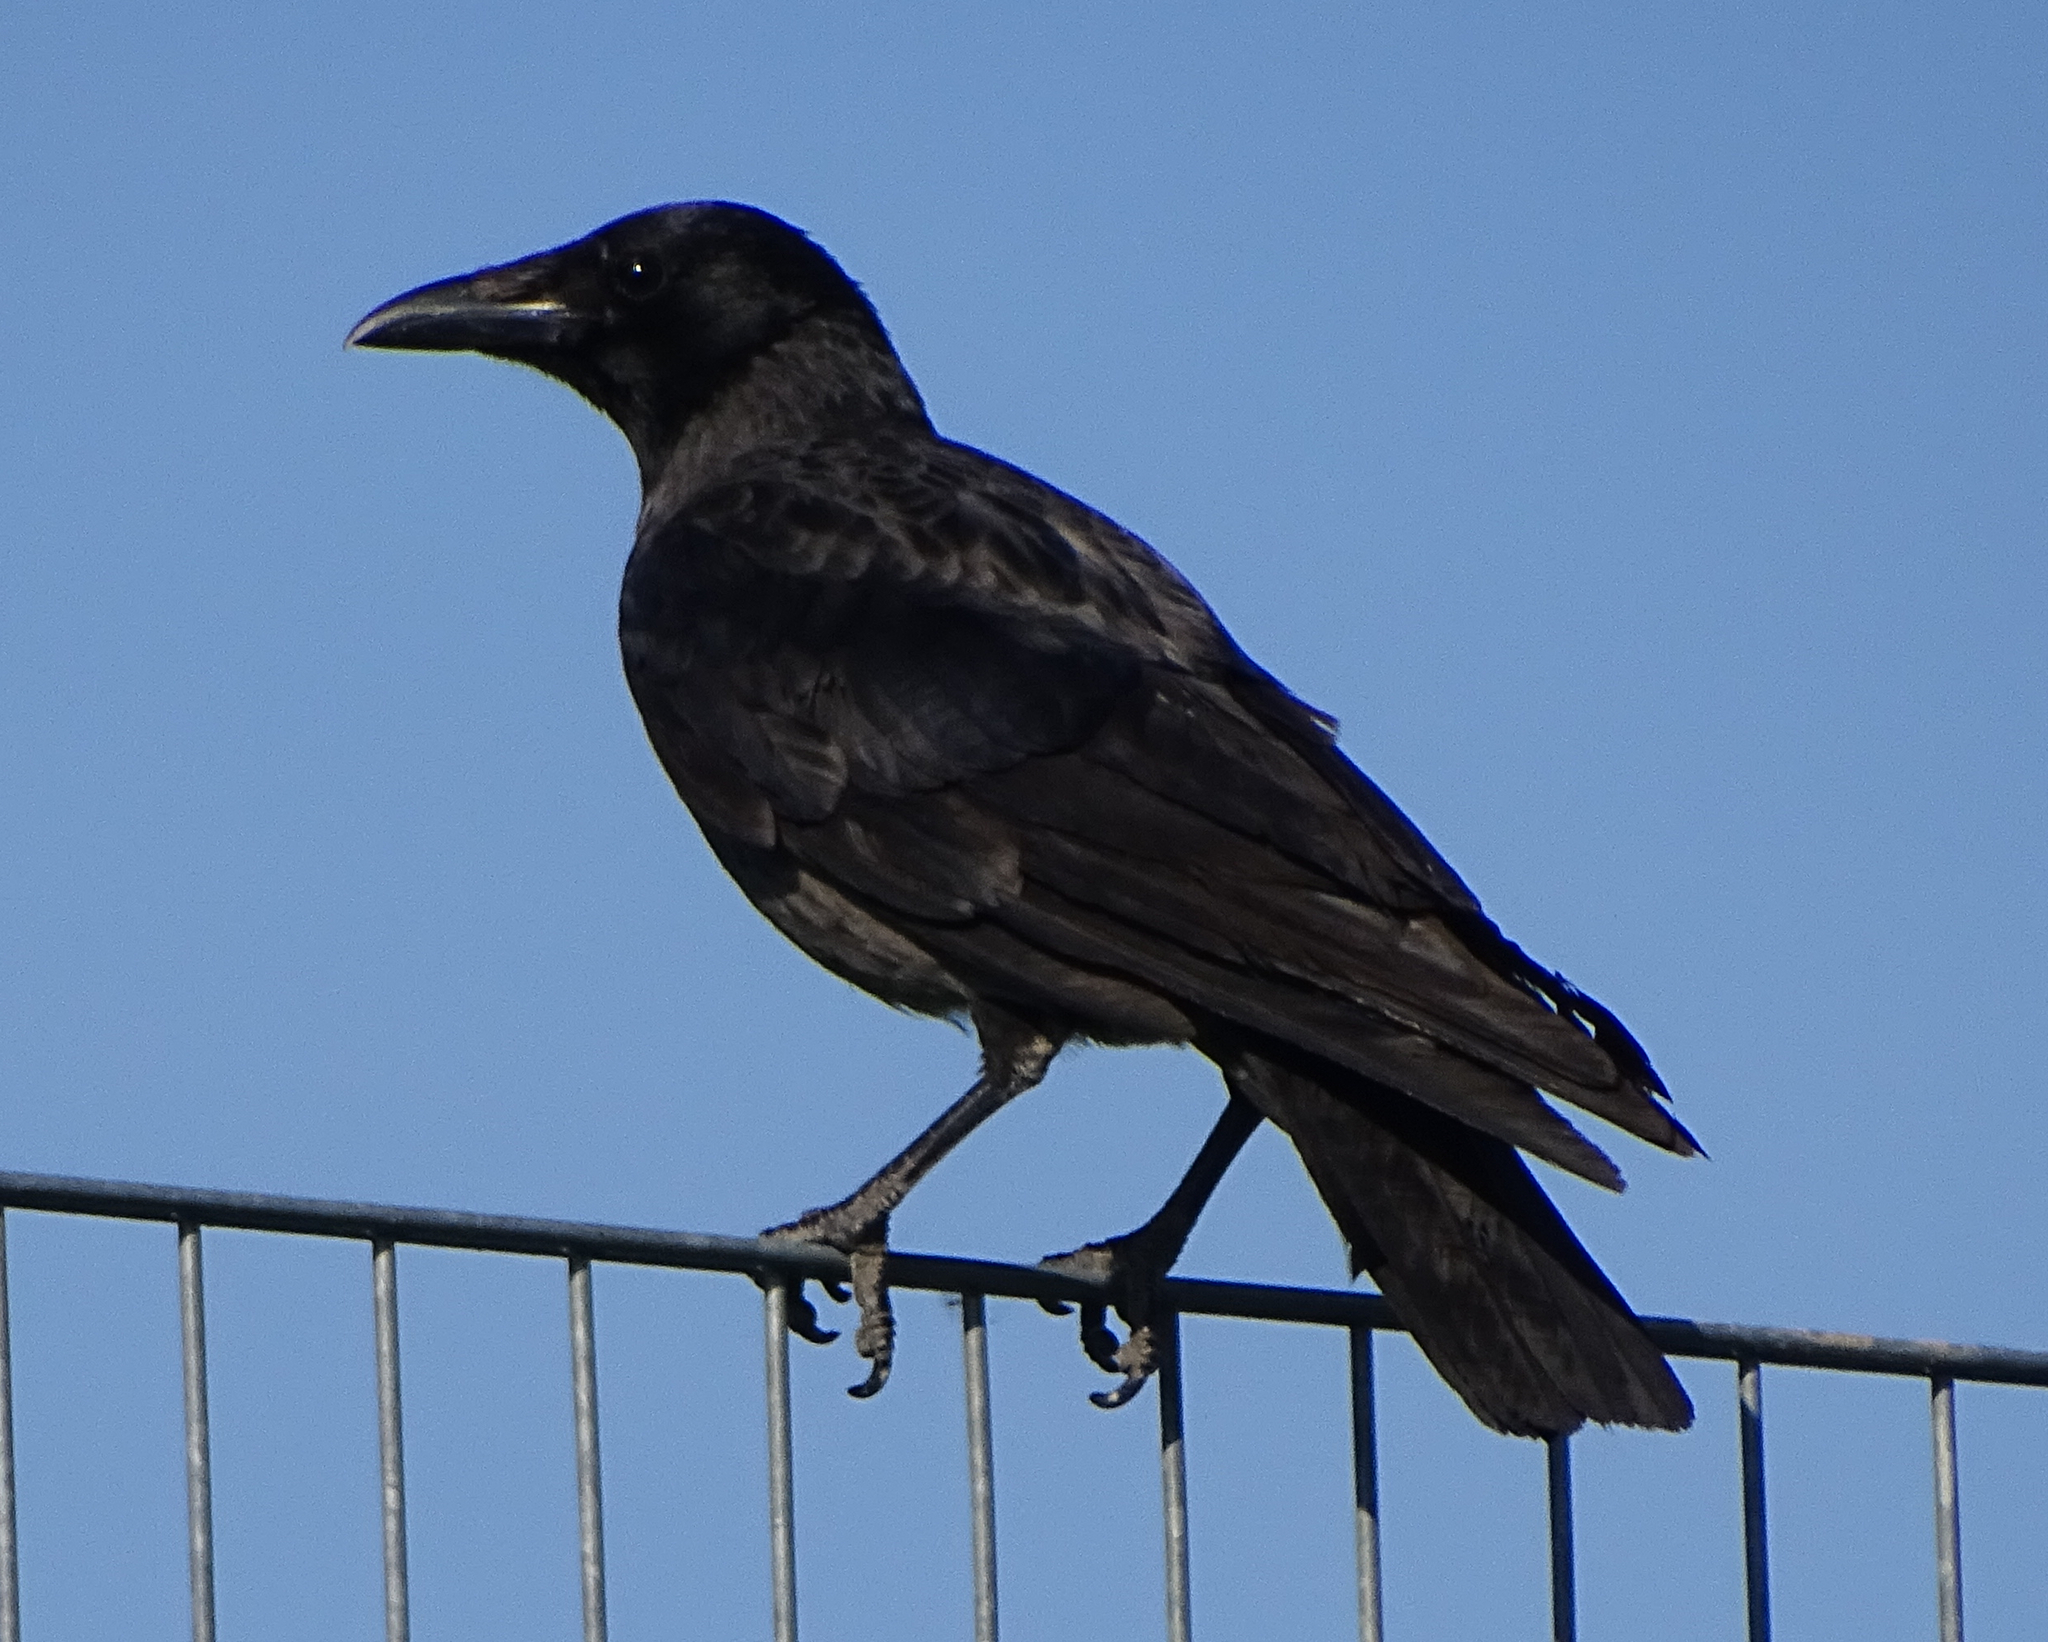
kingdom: Animalia
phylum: Chordata
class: Aves
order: Passeriformes
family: Corvidae
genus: Corvus
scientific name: Corvus
